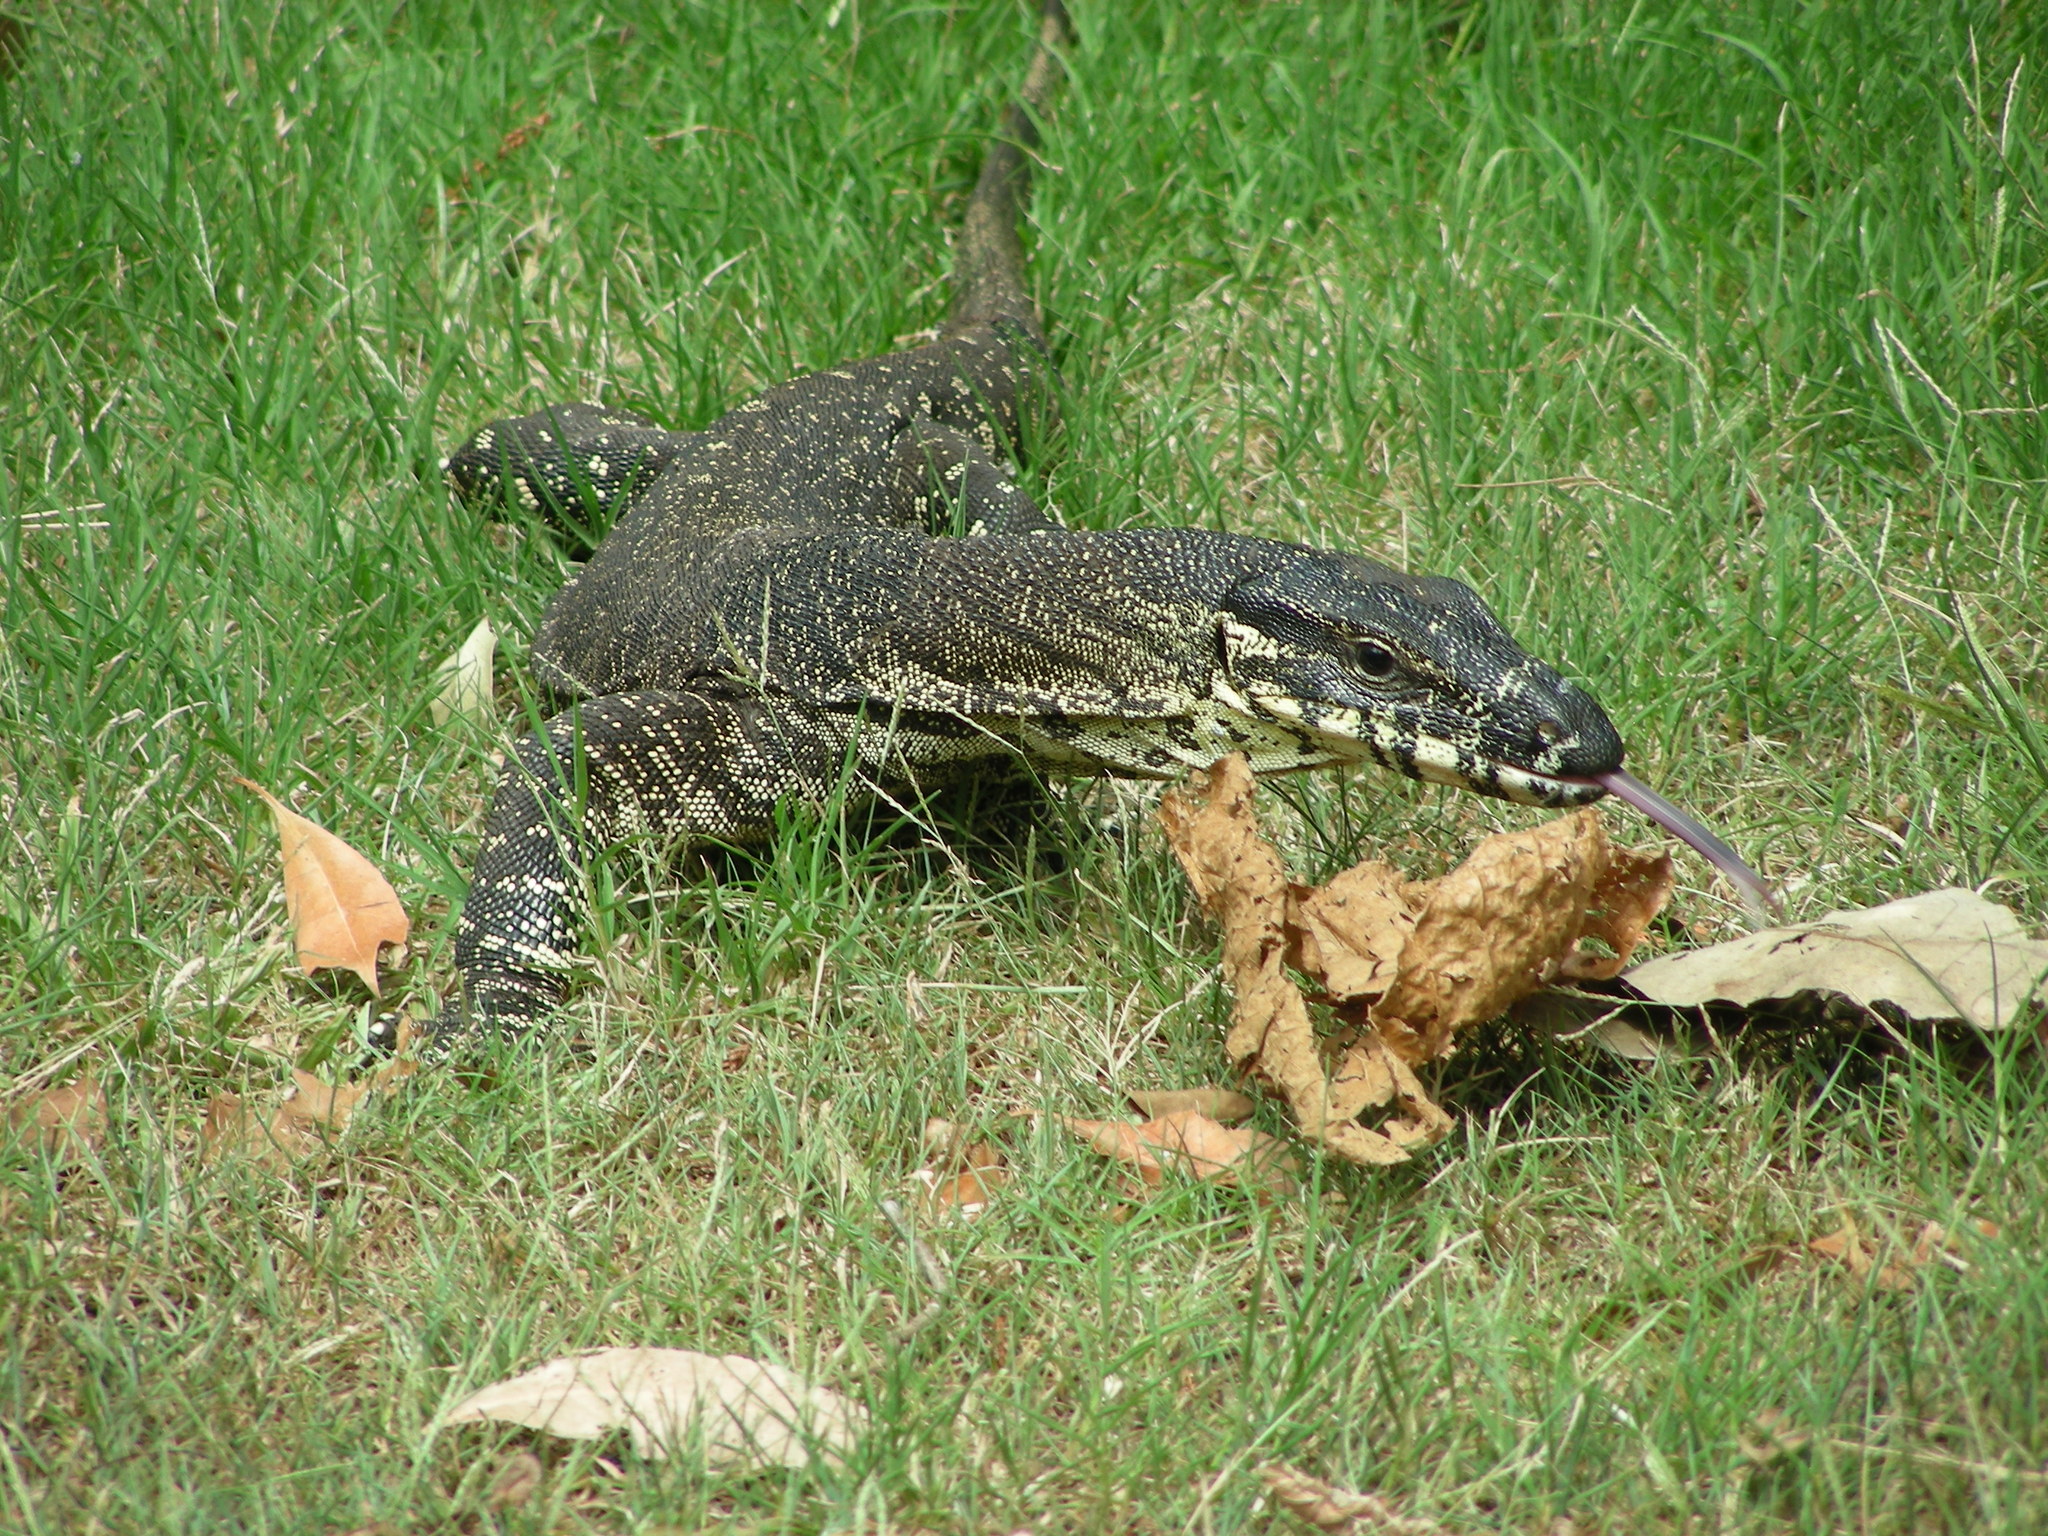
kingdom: Animalia
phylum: Chordata
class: Squamata
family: Varanidae
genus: Varanus
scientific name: Varanus varius
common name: Lace monitor
